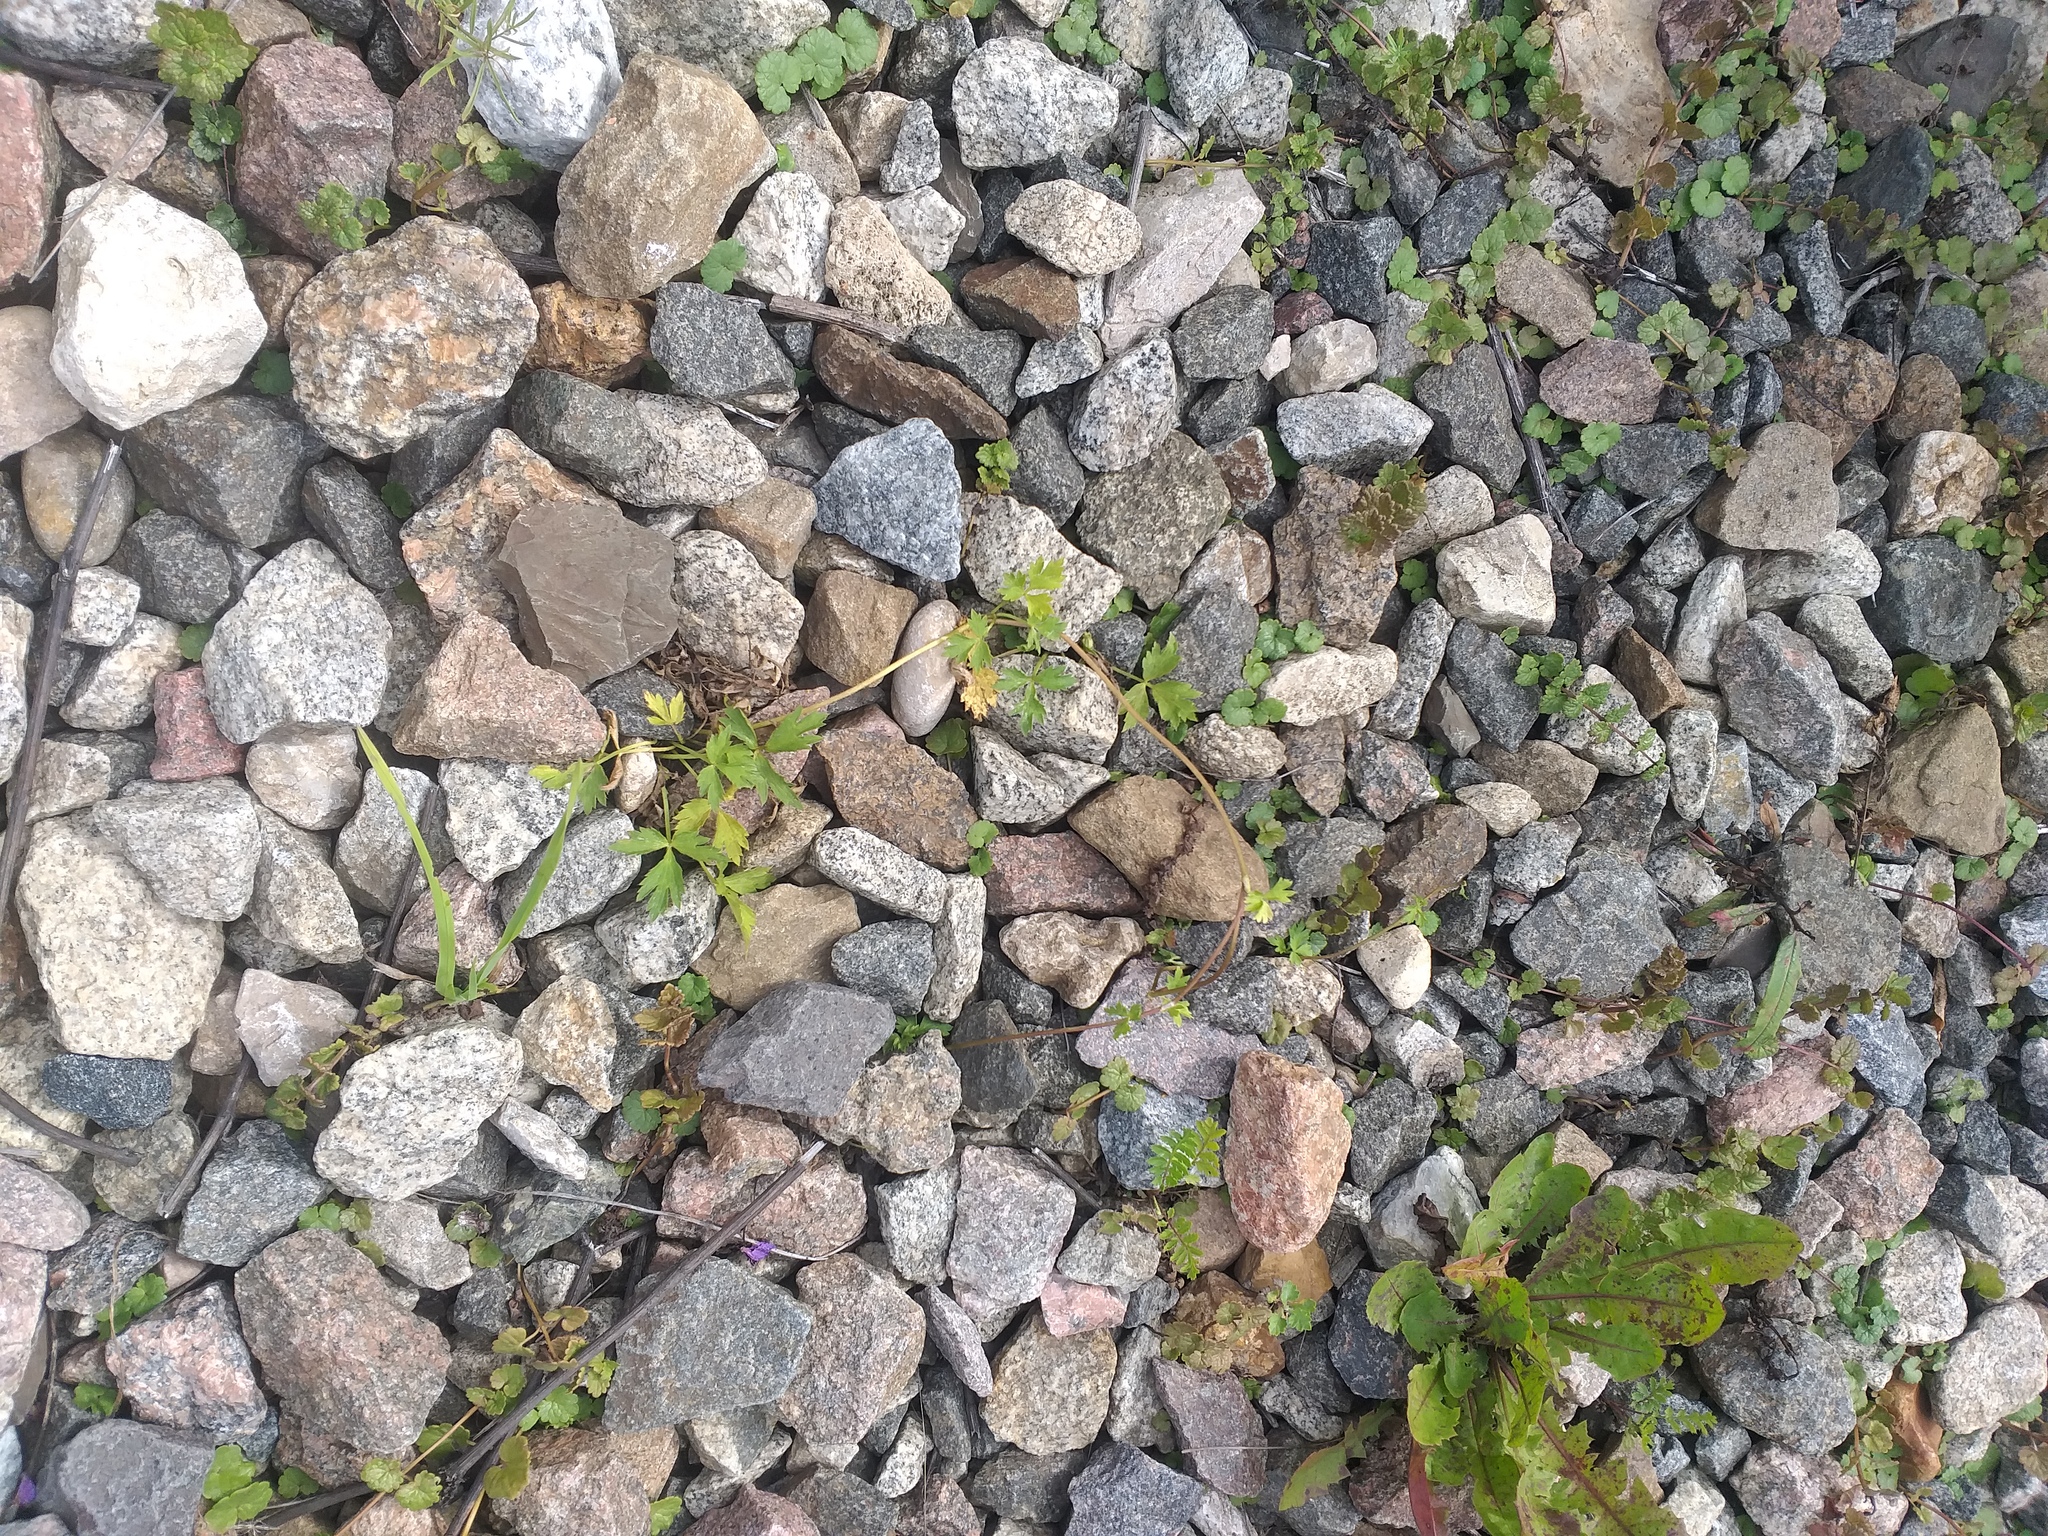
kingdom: Plantae
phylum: Tracheophyta
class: Magnoliopsida
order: Ranunculales
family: Ranunculaceae
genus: Ranunculus
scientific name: Ranunculus repens
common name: Creeping buttercup
